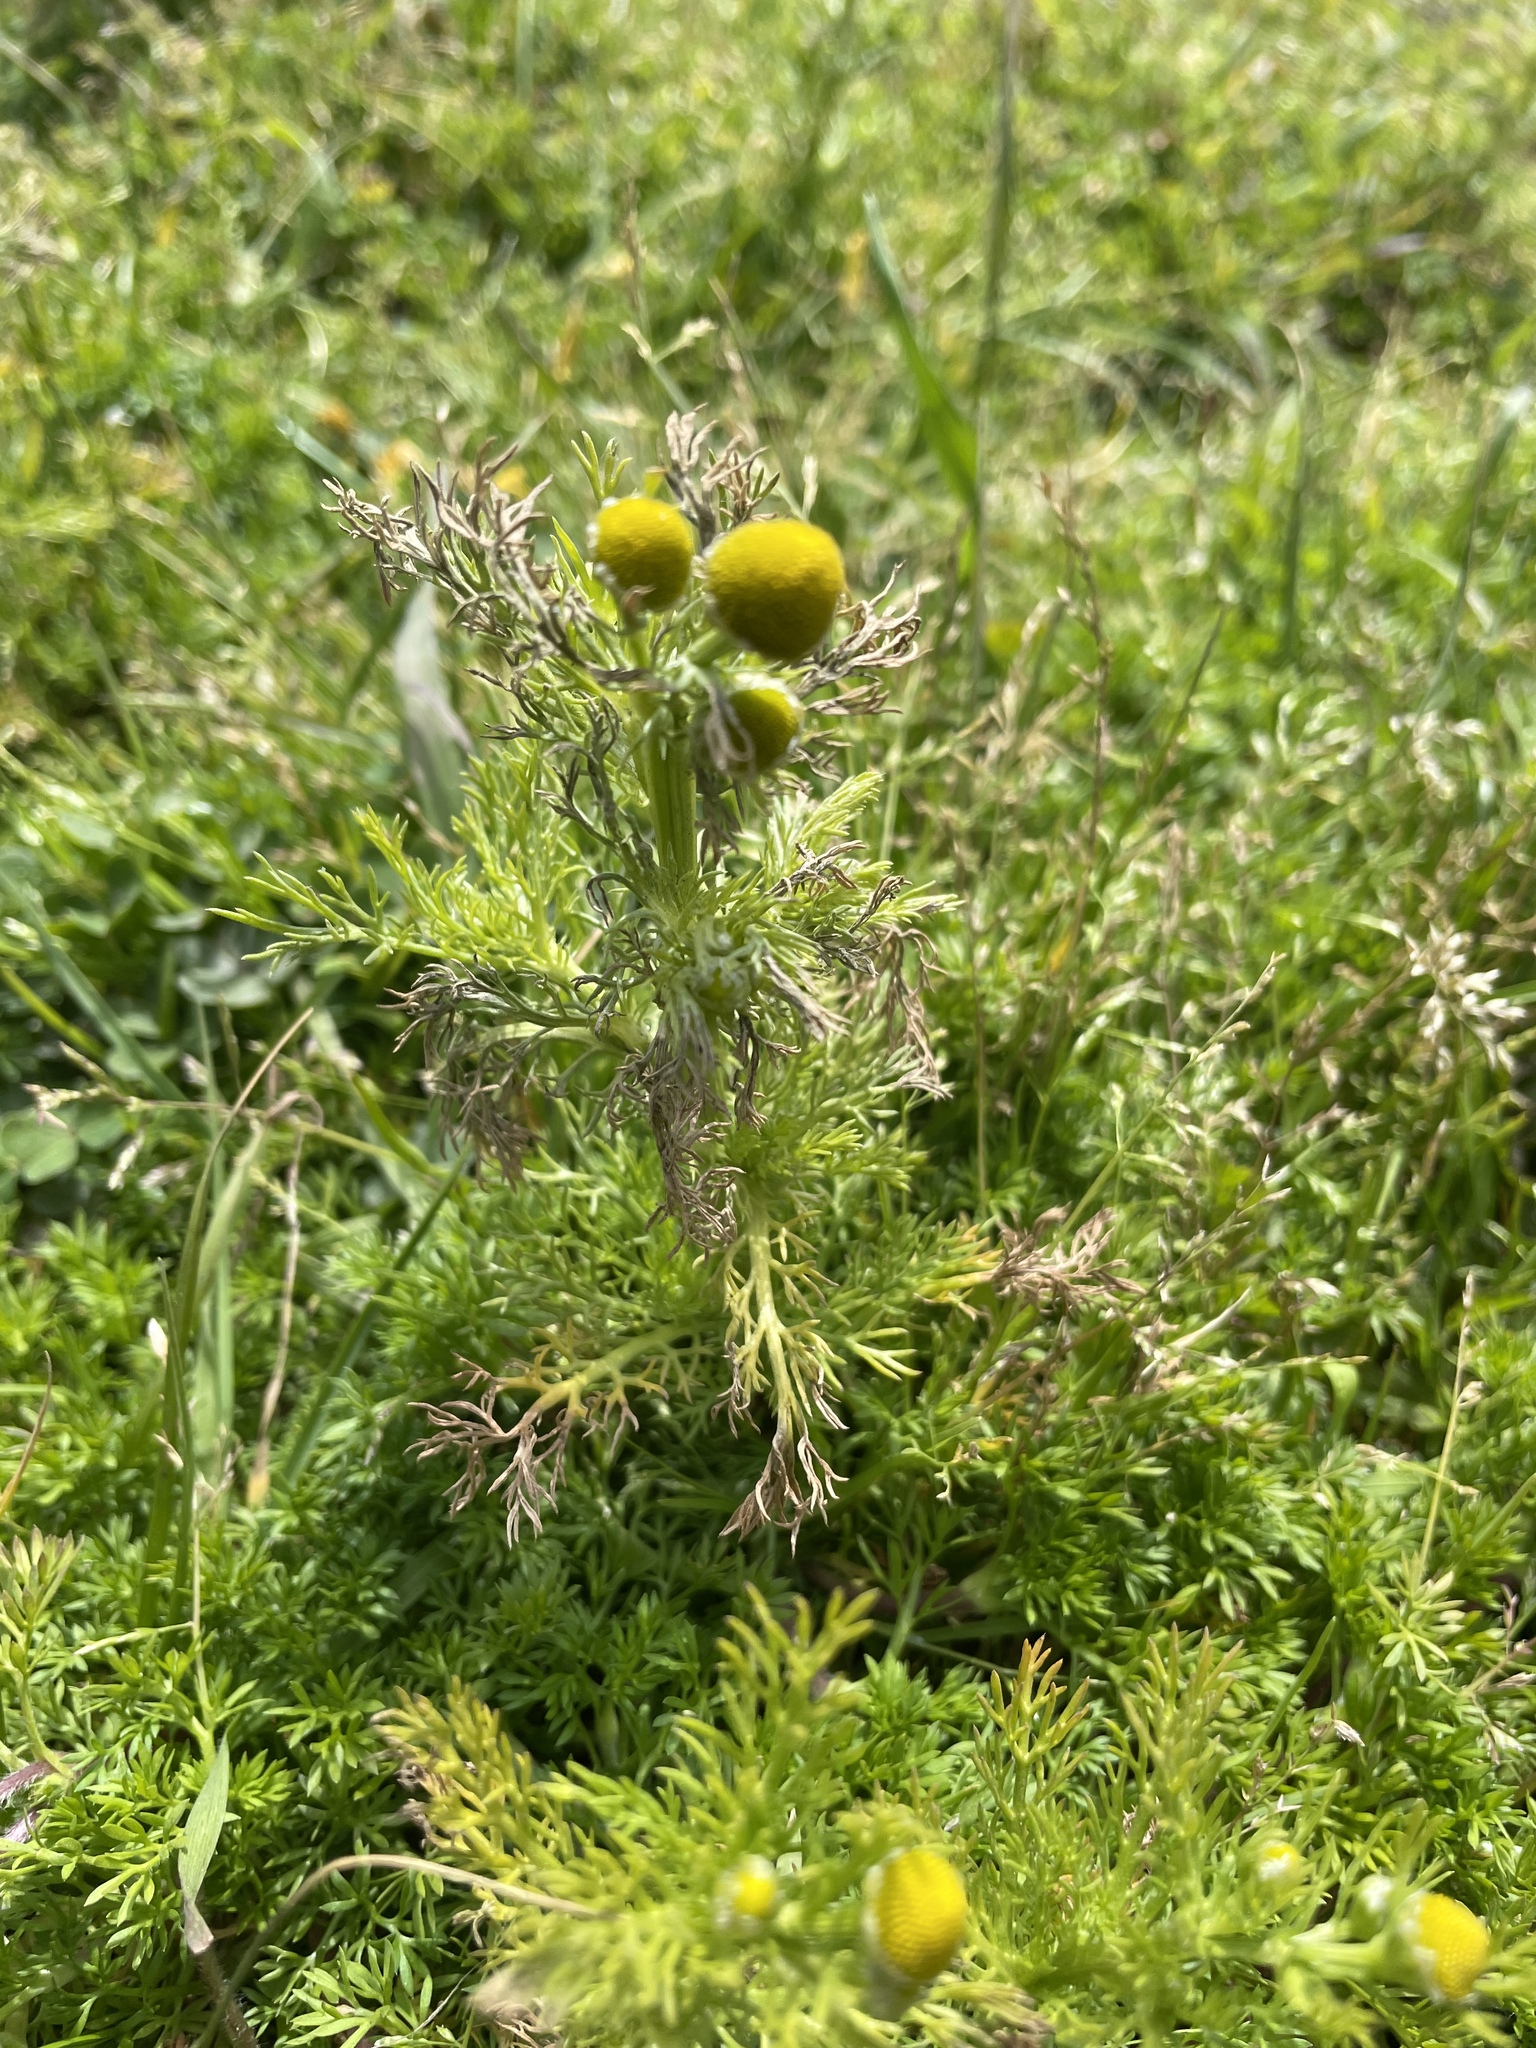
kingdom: Plantae
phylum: Tracheophyta
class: Magnoliopsida
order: Asterales
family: Asteraceae
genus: Matricaria
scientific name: Matricaria discoidea
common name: Disc mayweed
